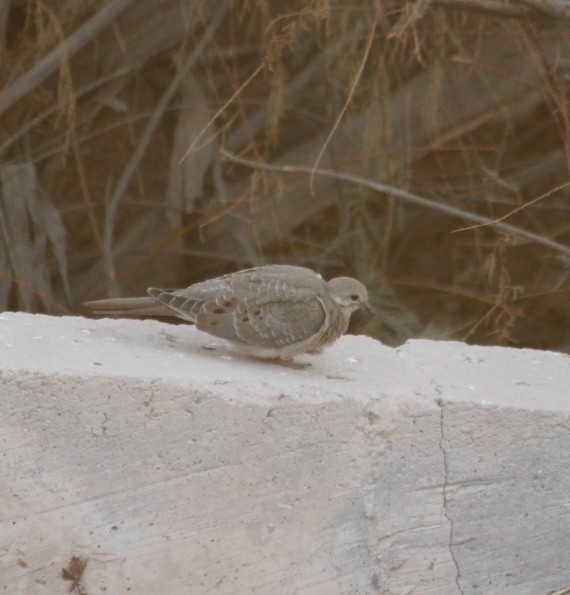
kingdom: Animalia
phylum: Chordata
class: Aves
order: Columbiformes
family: Columbidae
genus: Zenaida
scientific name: Zenaida macroura
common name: Mourning dove
